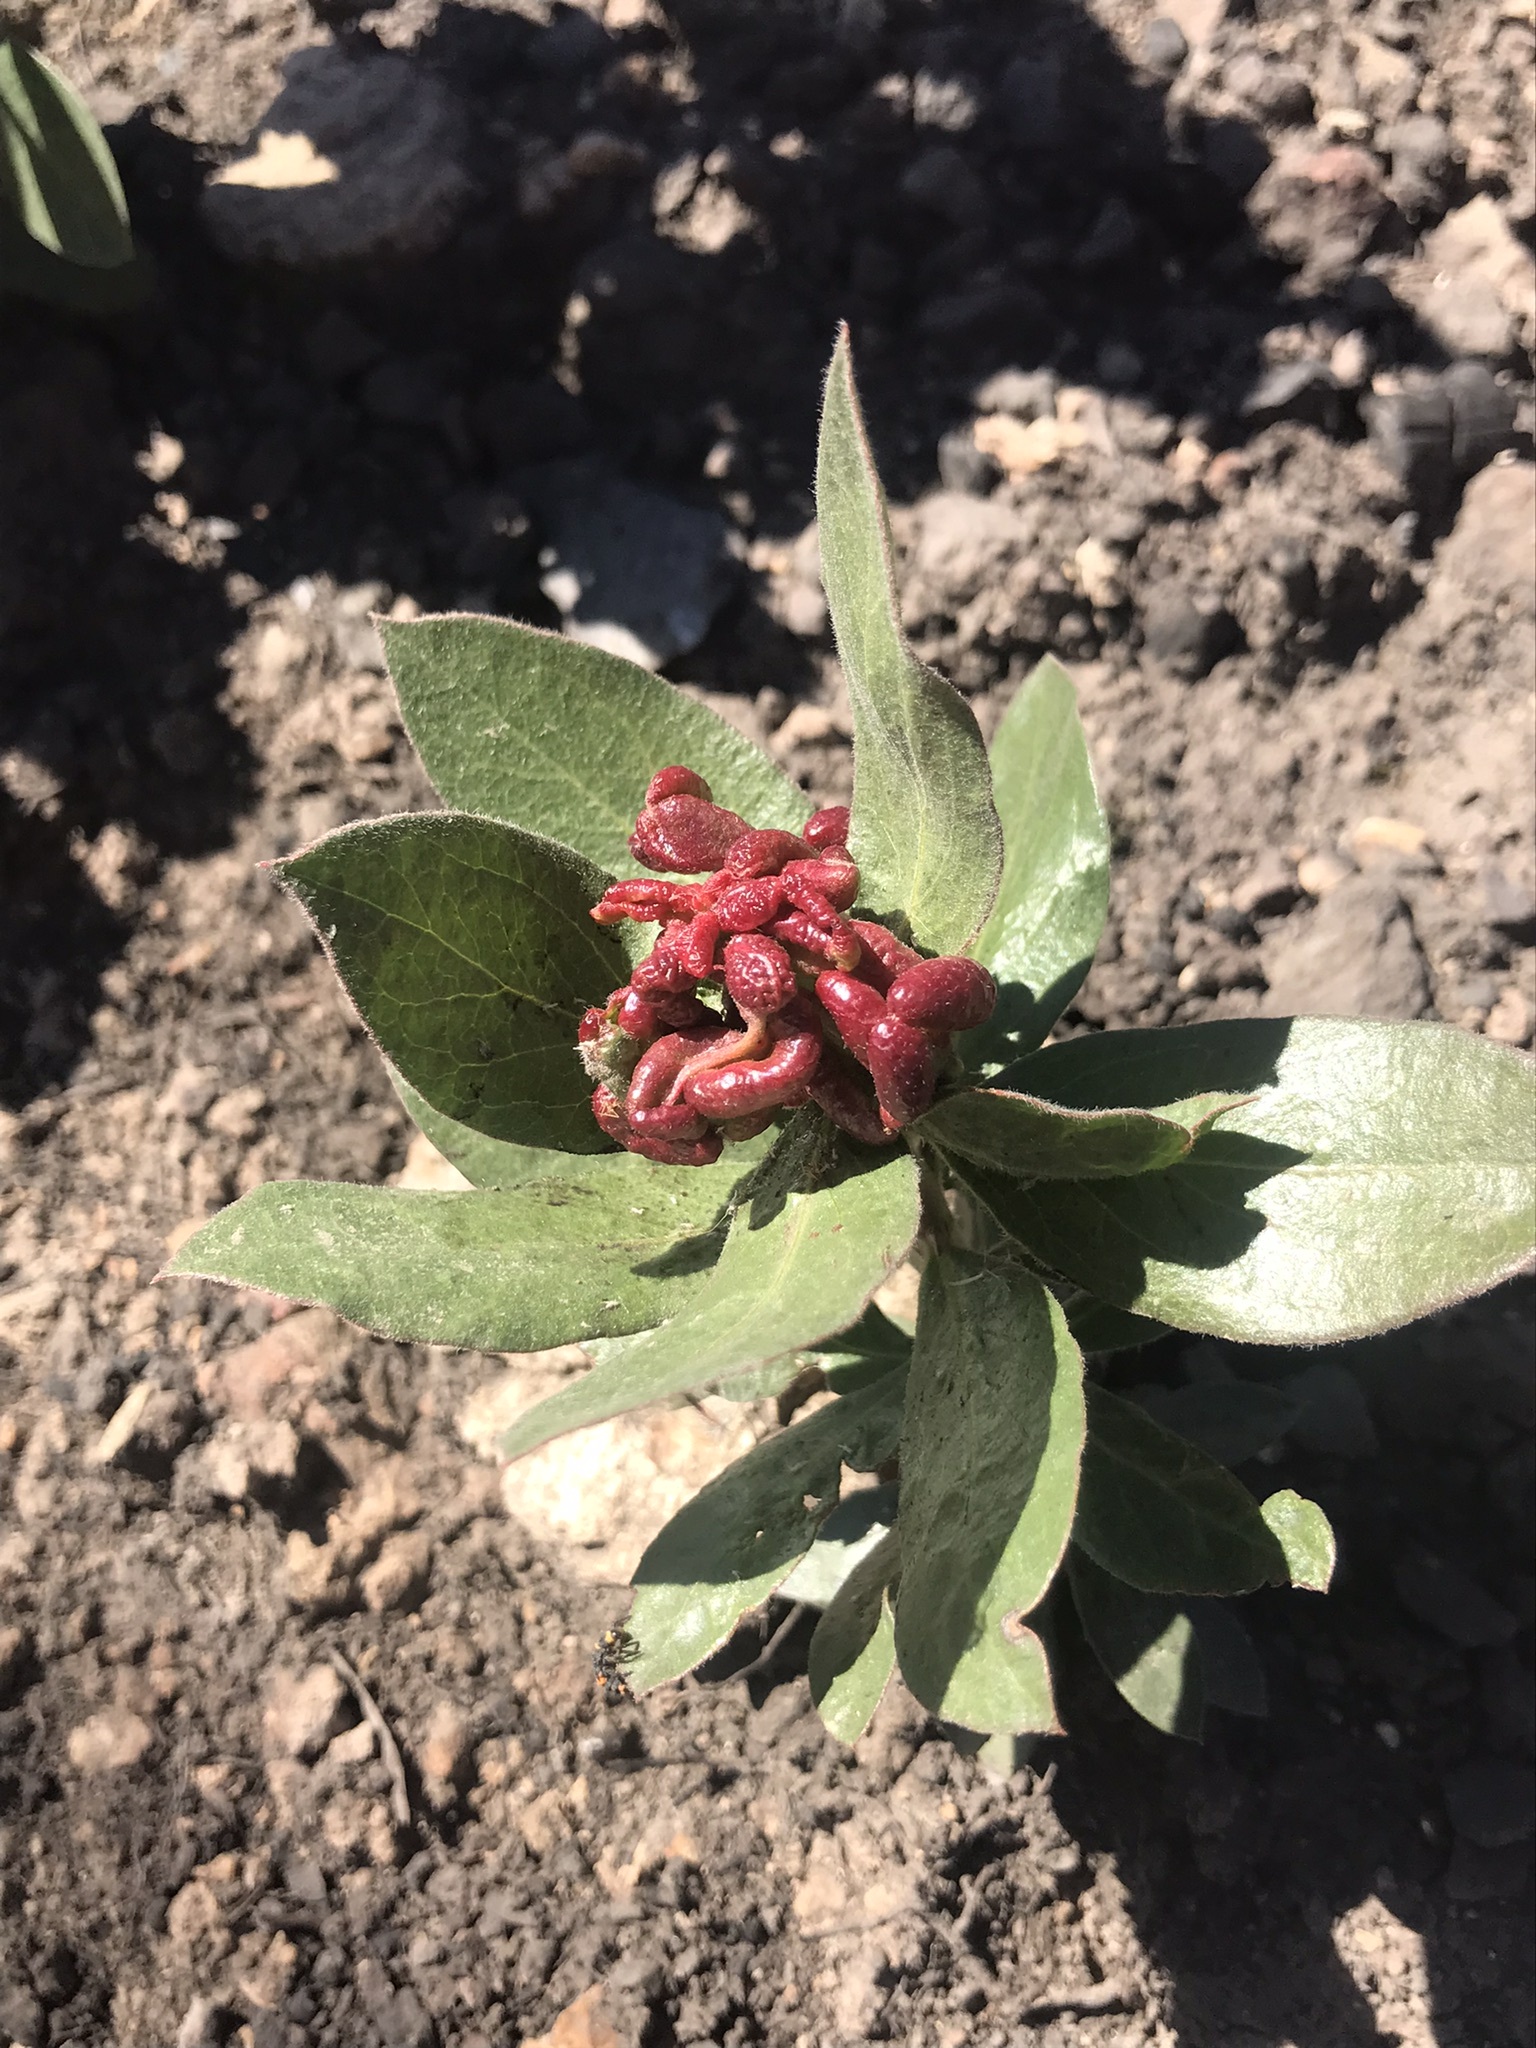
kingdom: Animalia
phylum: Arthropoda
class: Insecta
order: Hemiptera
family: Aphididae
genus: Tamalia
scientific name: Tamalia coweni
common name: Manzanita leafgall aphid
